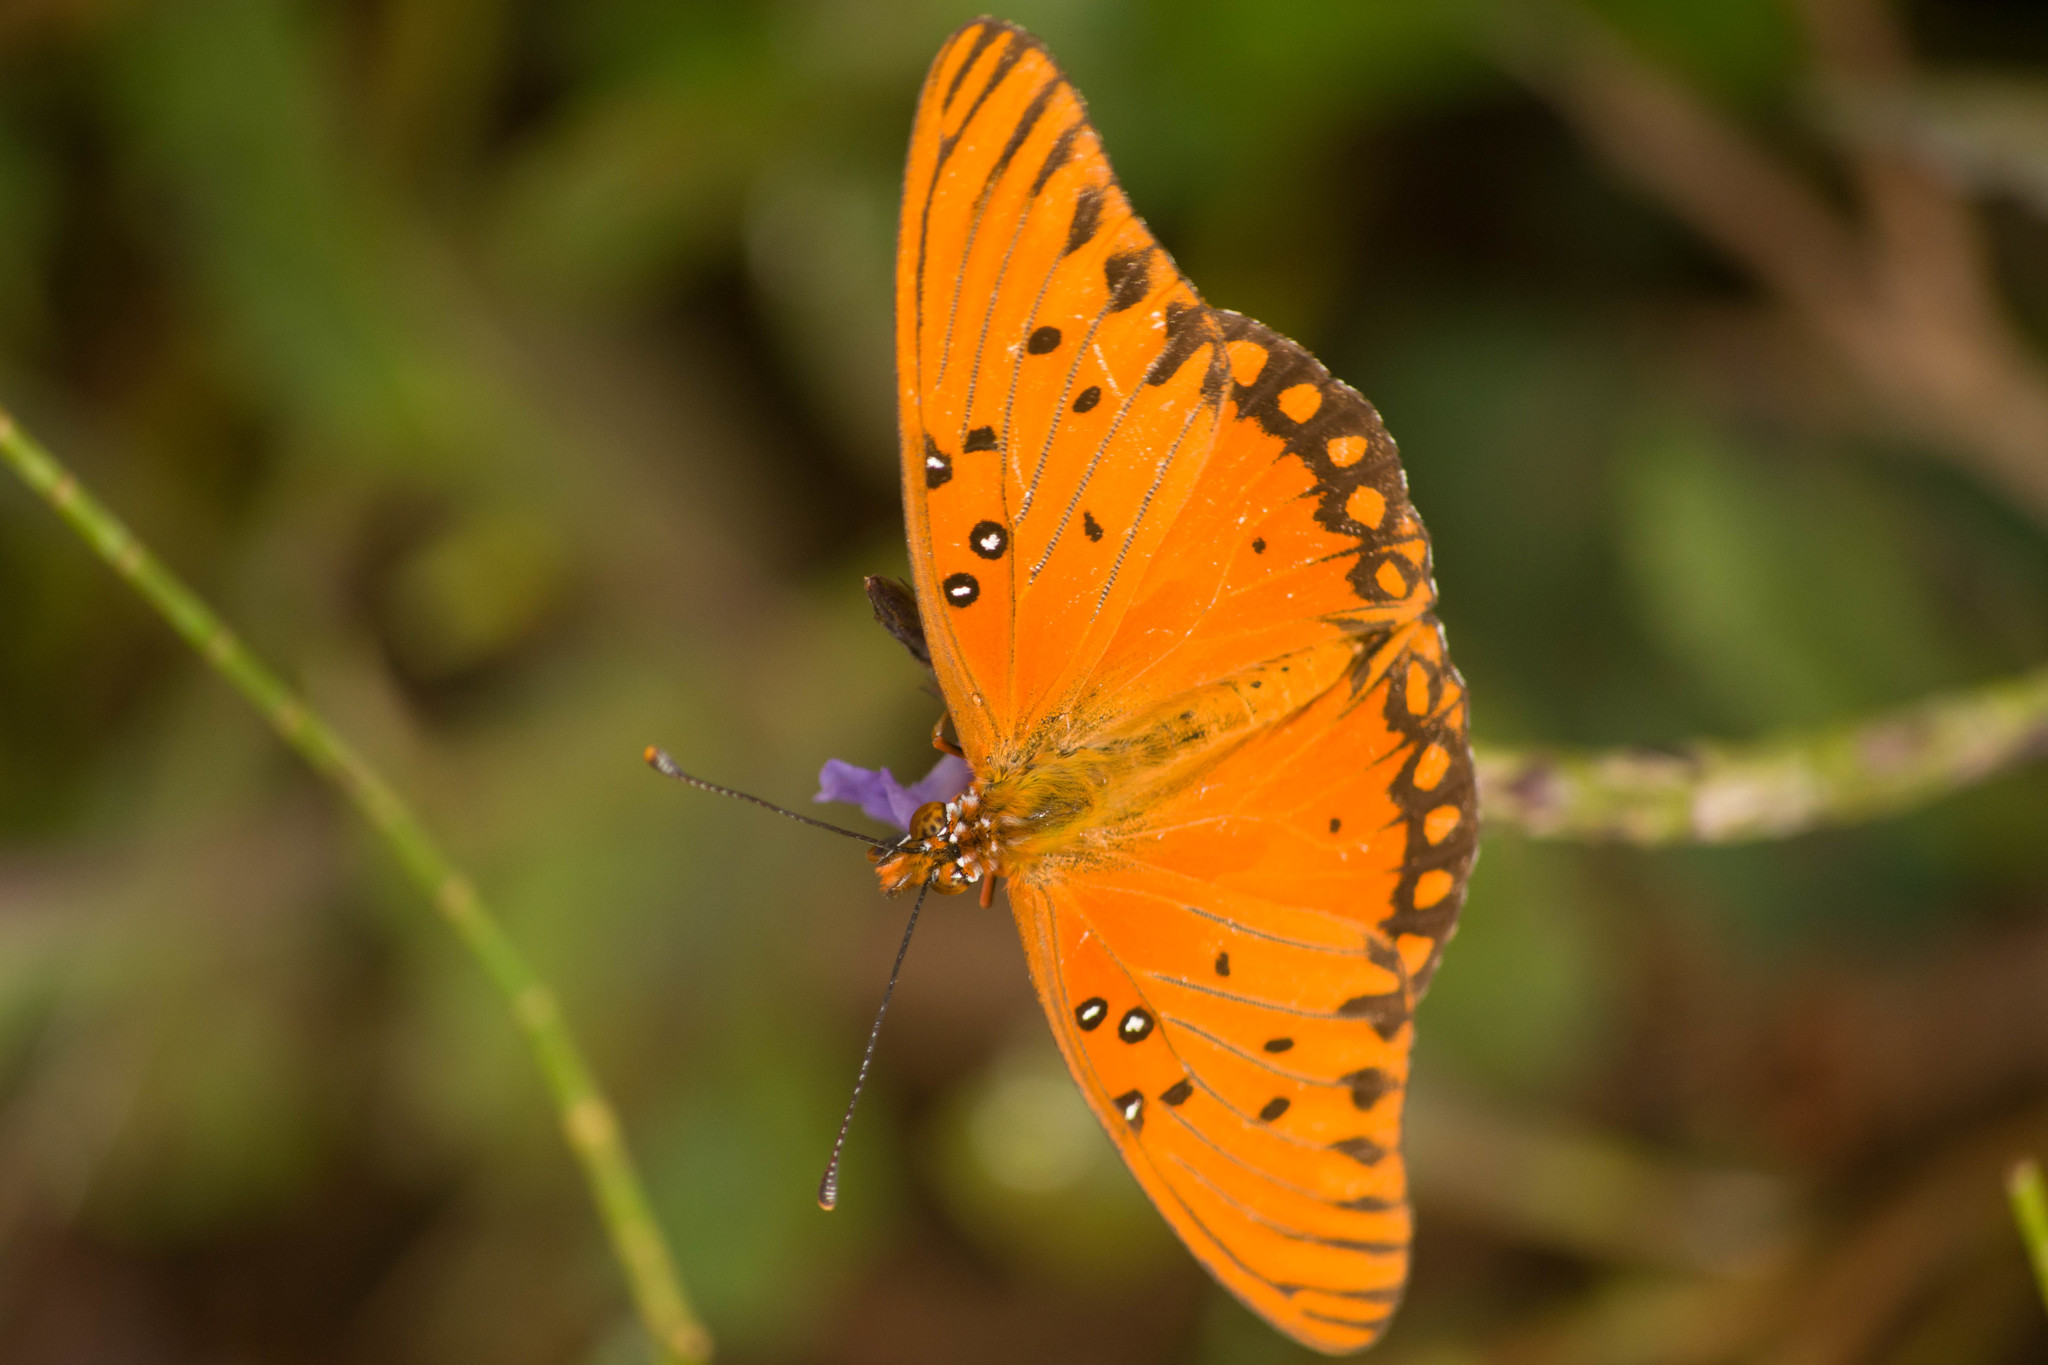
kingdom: Animalia
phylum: Arthropoda
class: Insecta
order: Lepidoptera
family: Nymphalidae
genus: Dione
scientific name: Dione vanillae
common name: Gulf fritillary
